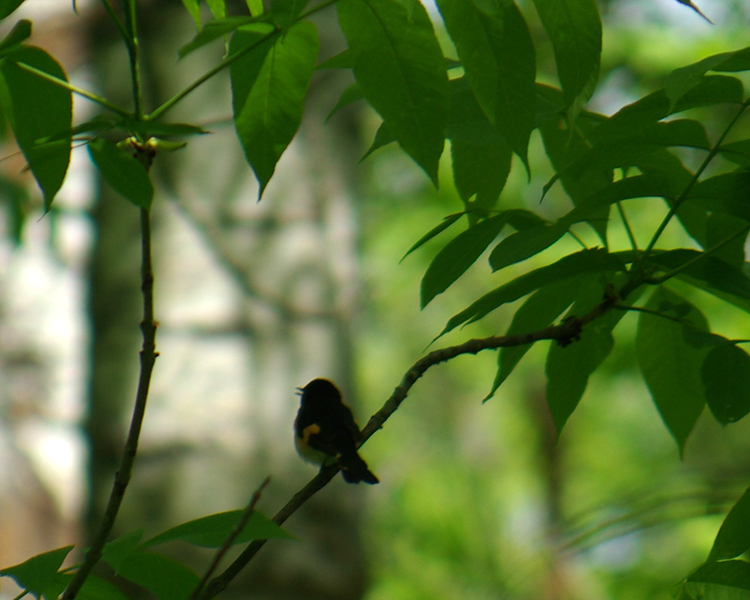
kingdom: Animalia
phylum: Chordata
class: Aves
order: Passeriformes
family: Parulidae
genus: Setophaga
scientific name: Setophaga ruticilla
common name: American redstart
